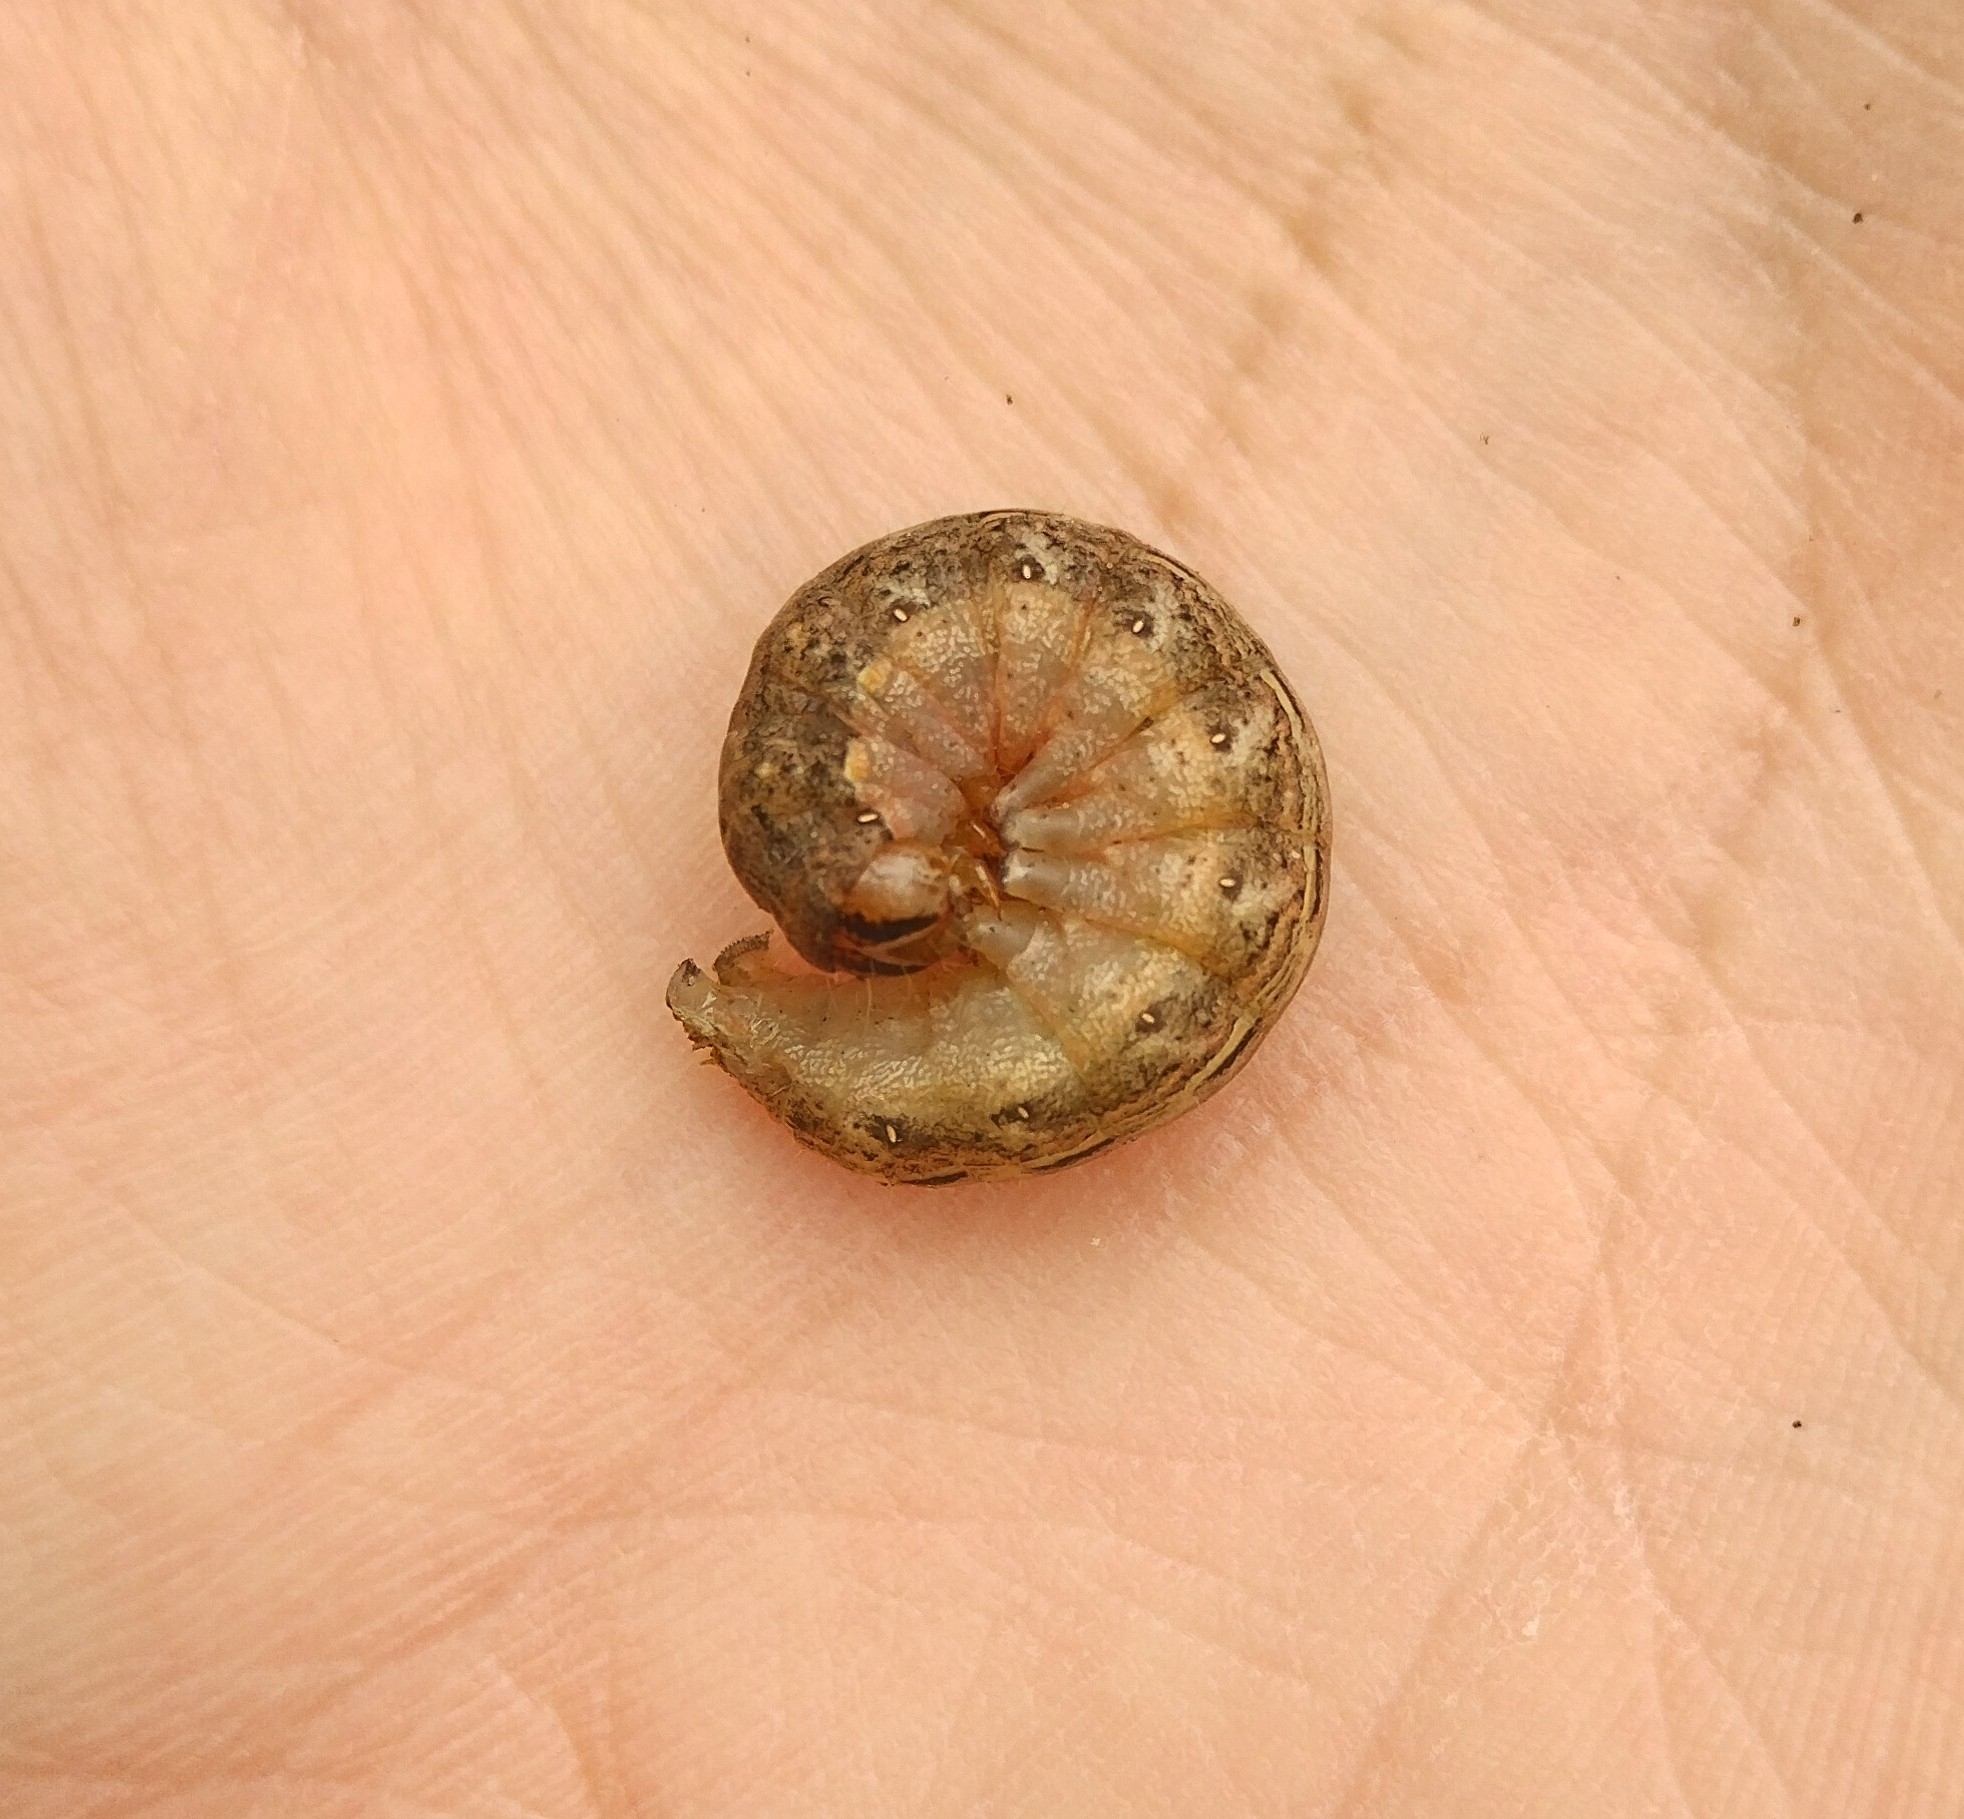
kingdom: Animalia
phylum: Arthropoda
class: Insecta
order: Lepidoptera
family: Noctuidae
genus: Noctua
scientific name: Noctua pronuba
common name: Large yellow underwing
